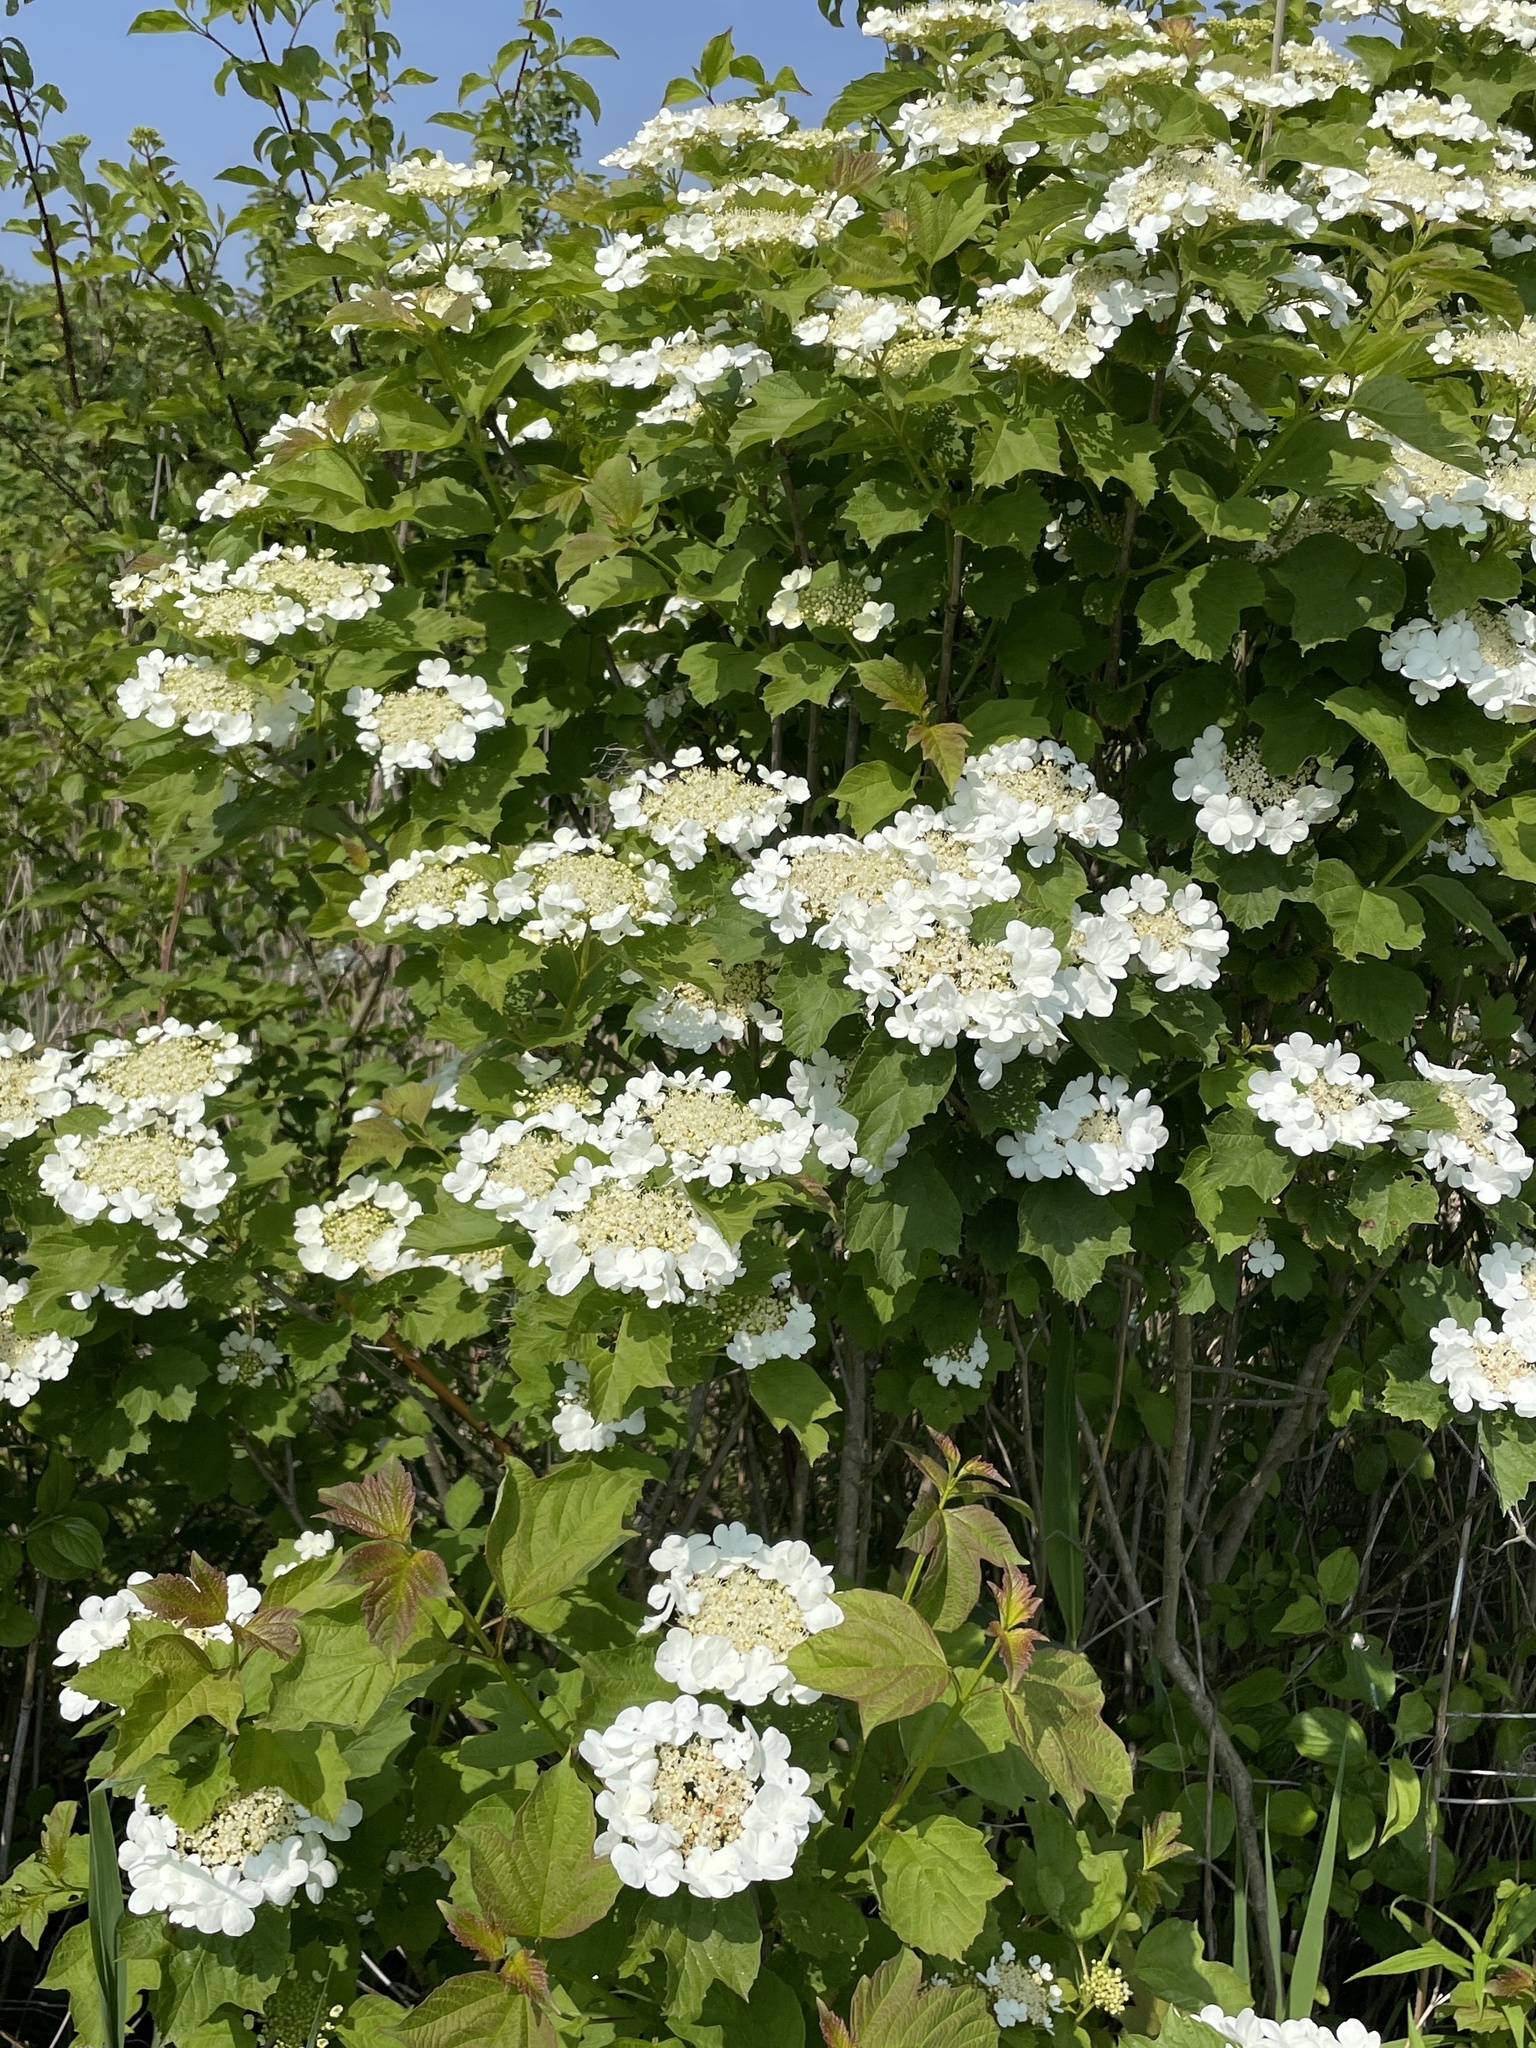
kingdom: Plantae
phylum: Tracheophyta
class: Magnoliopsida
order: Dipsacales
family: Viburnaceae
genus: Viburnum
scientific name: Viburnum opulus
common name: Guelder-rose
